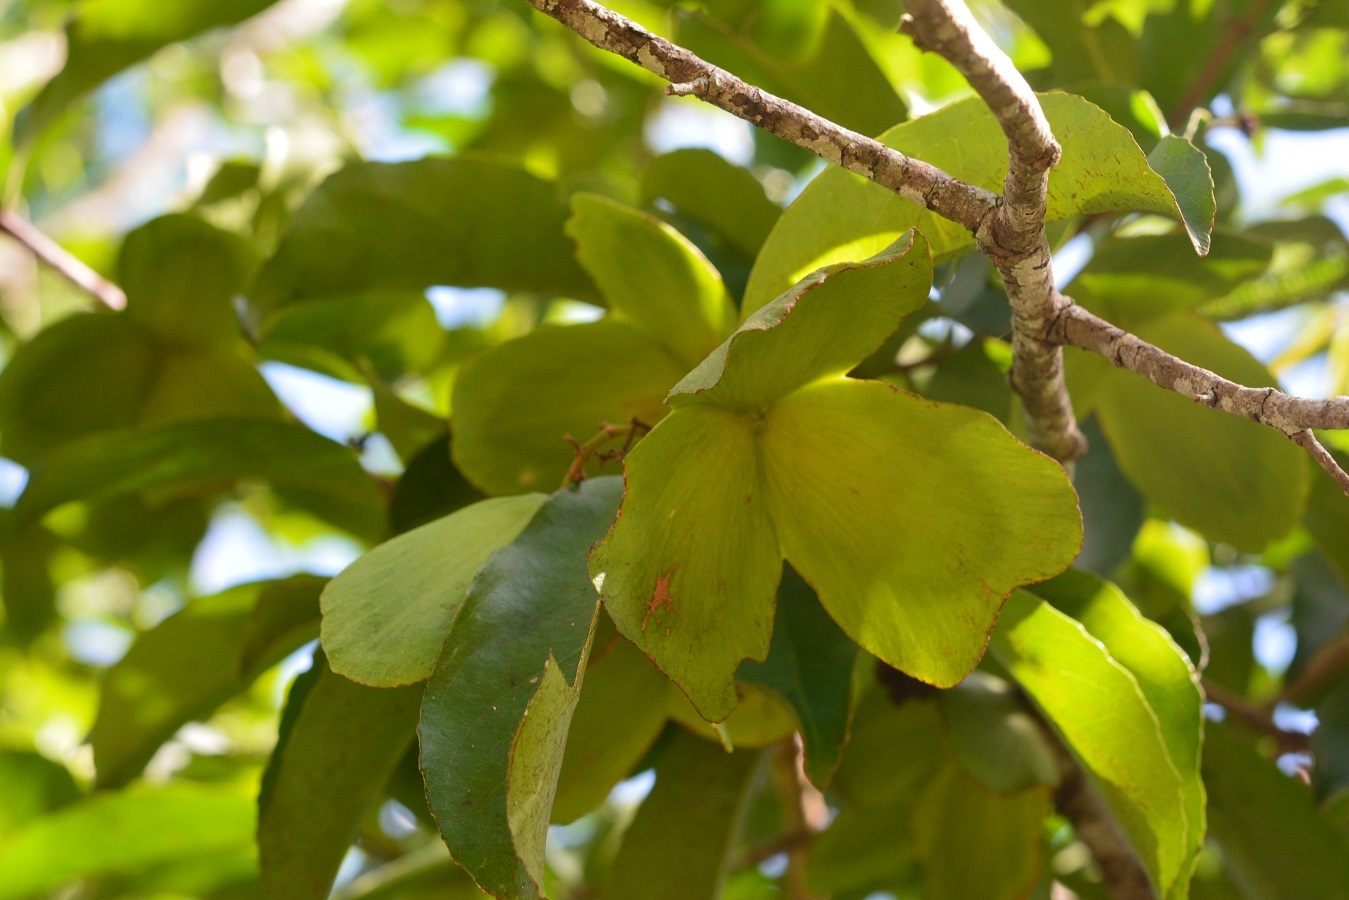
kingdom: Plantae
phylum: Tracheophyta
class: Magnoliopsida
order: Celastrales
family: Celastraceae
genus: Semialarium
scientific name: Semialarium mexicanum
